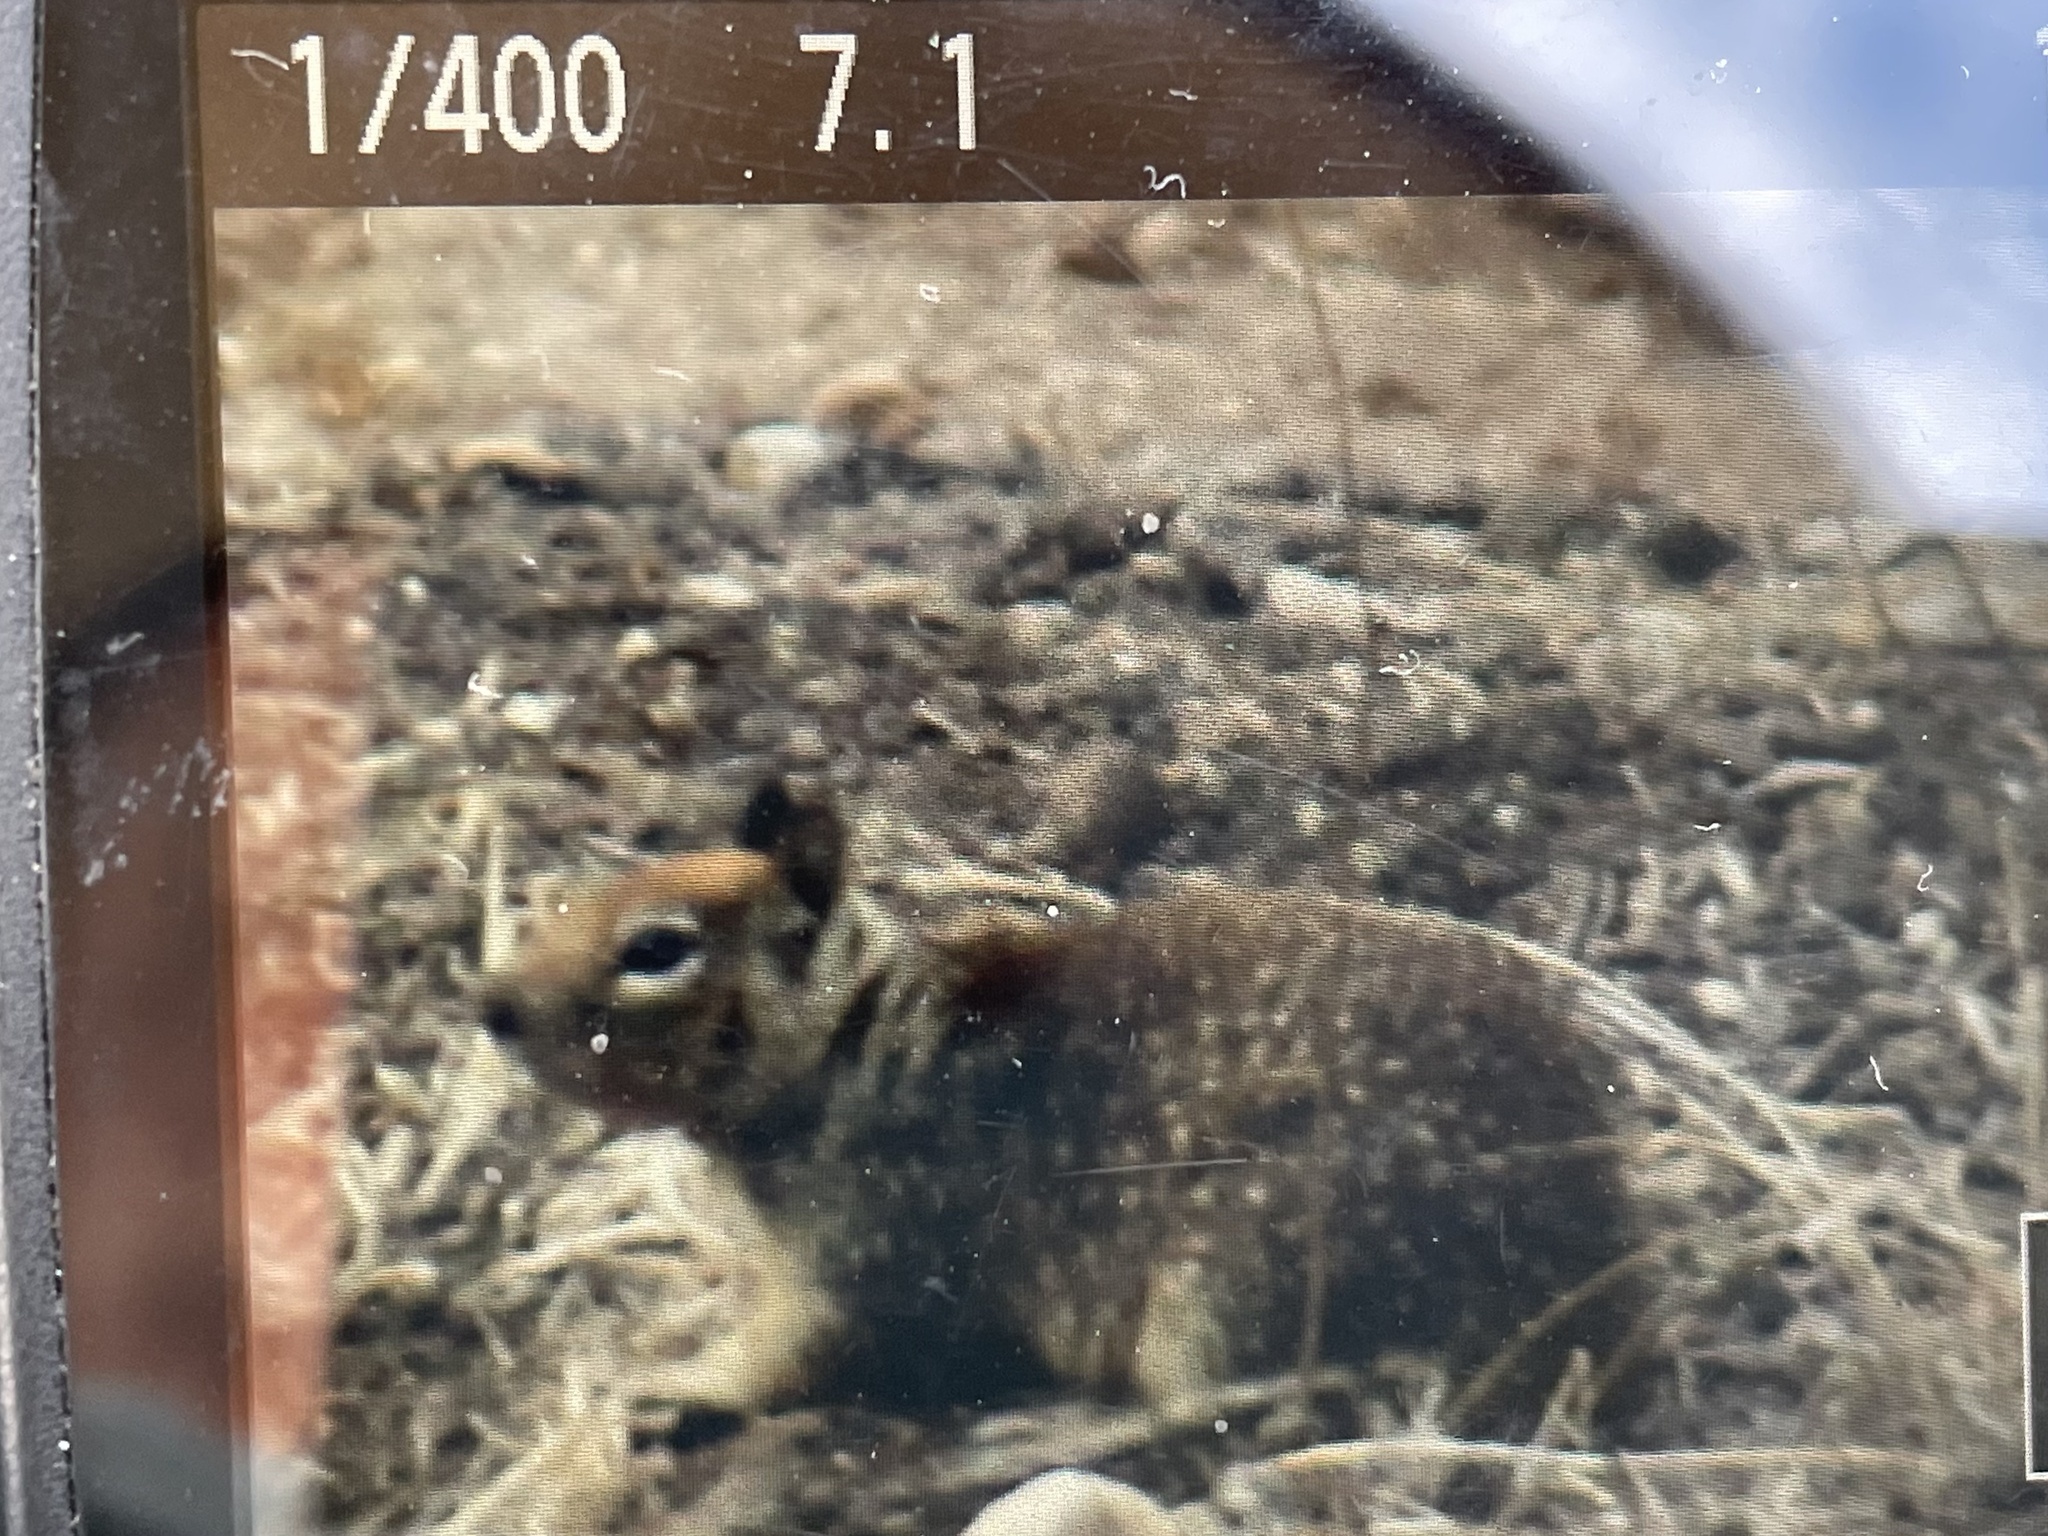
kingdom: Animalia
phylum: Chordata
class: Mammalia
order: Rodentia
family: Sciuridae
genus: Otospermophilus
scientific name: Otospermophilus beecheyi
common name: California ground squirrel
